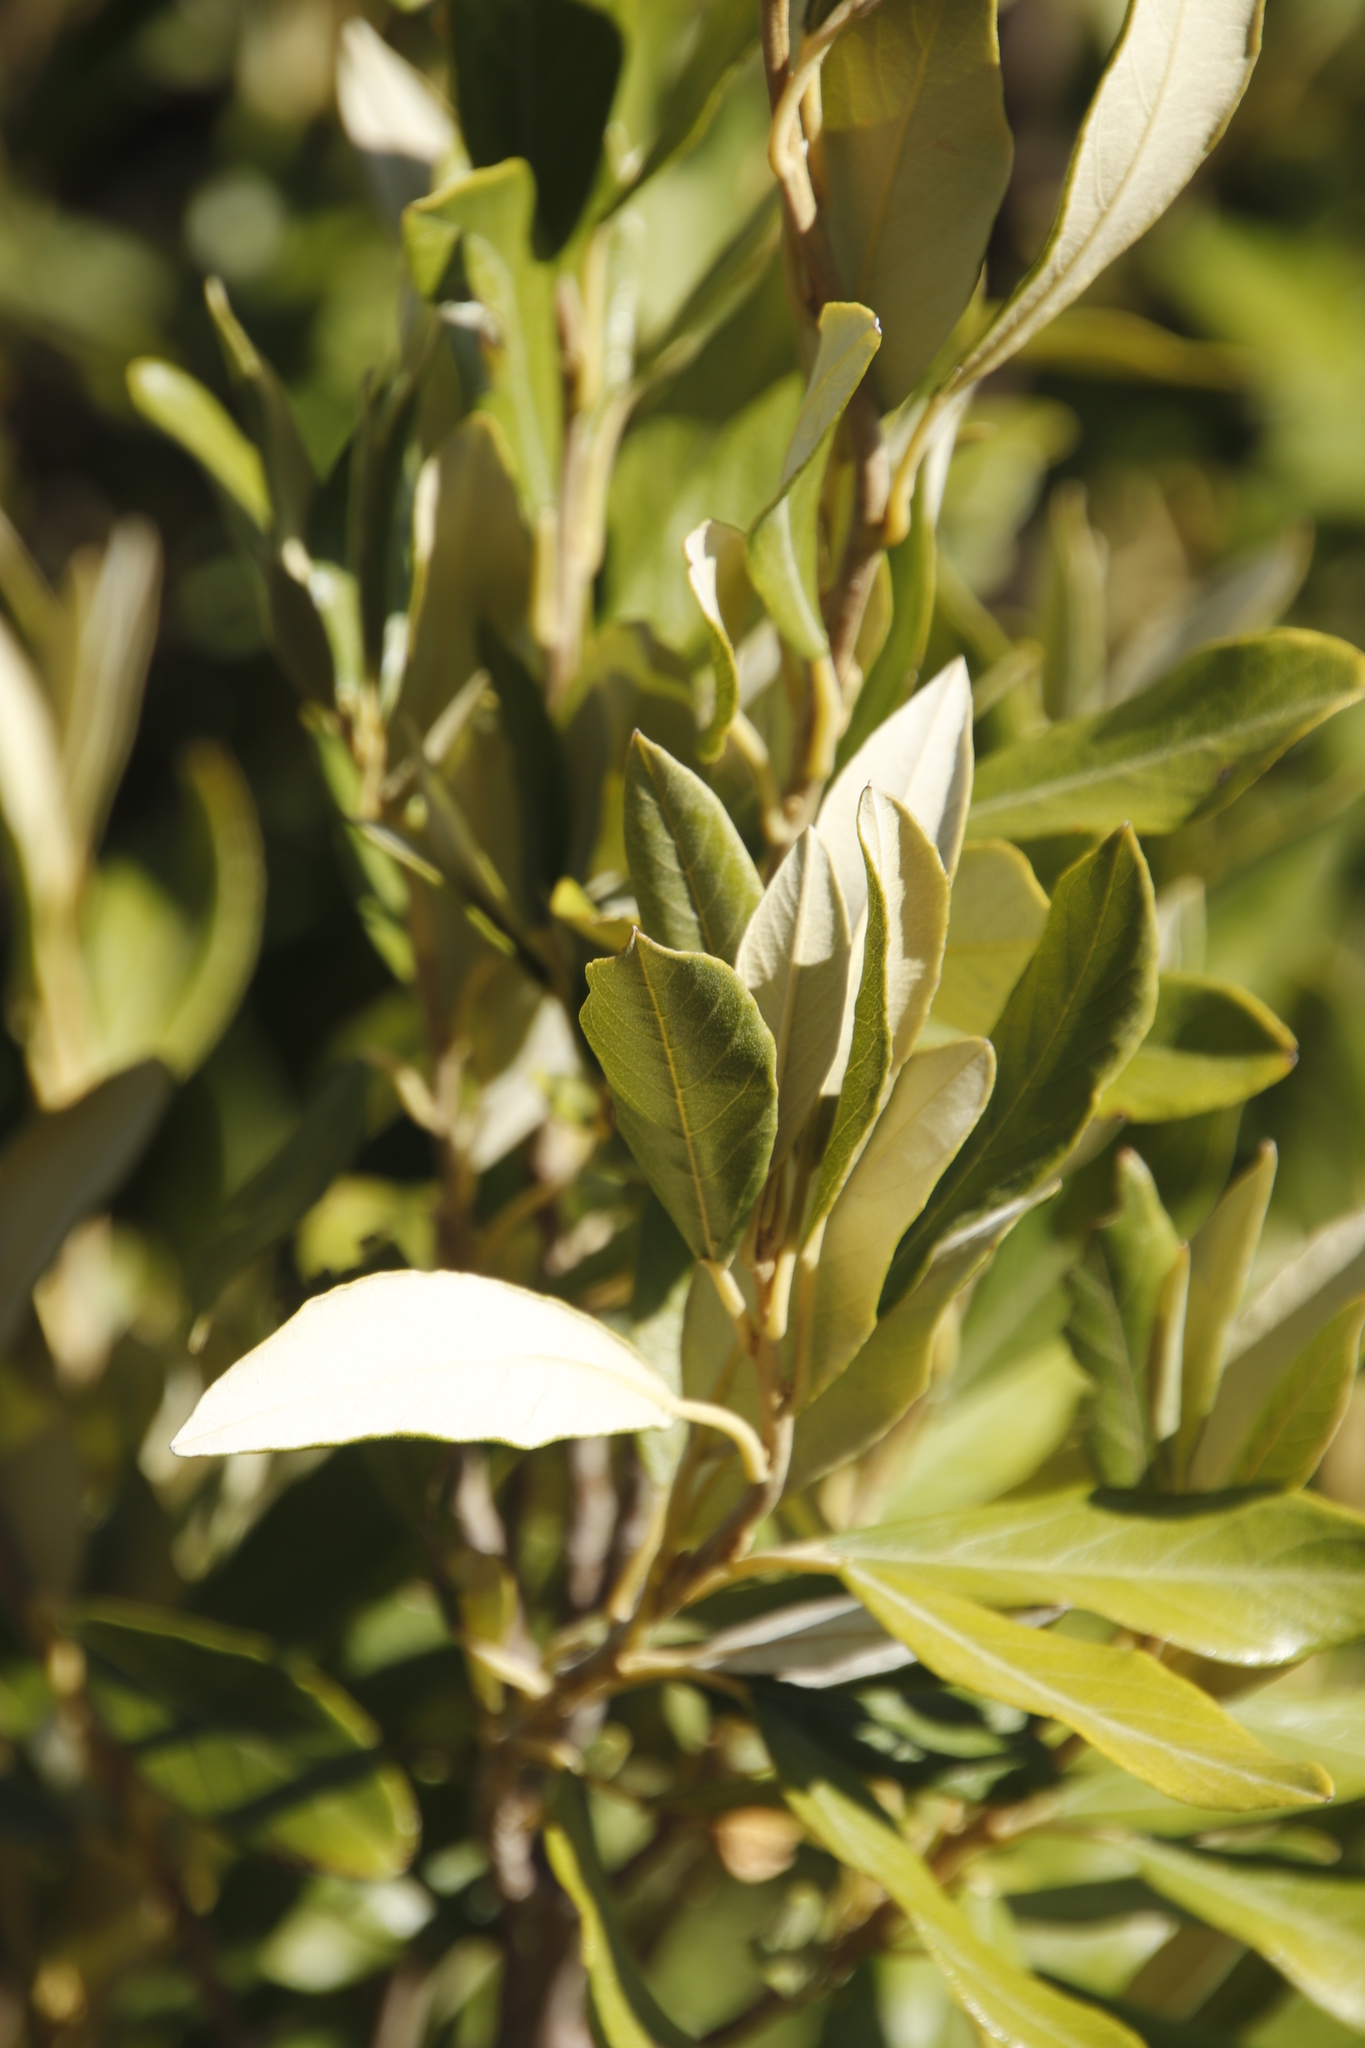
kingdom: Plantae
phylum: Tracheophyta
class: Magnoliopsida
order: Malpighiales
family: Achariaceae
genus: Kiggelaria
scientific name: Kiggelaria africana
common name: Wild peach
